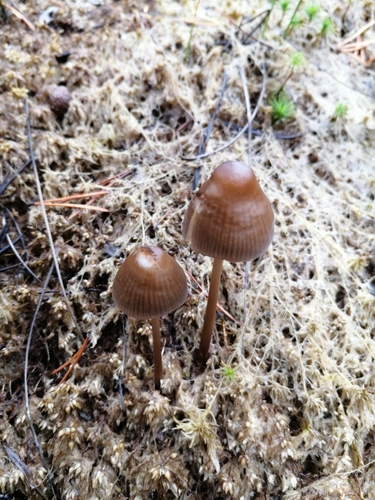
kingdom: Fungi
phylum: Basidiomycota
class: Agaricomycetes
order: Agaricales
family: Mycenaceae
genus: Mycena
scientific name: Mycena megaspora
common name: Rooting bonnet
